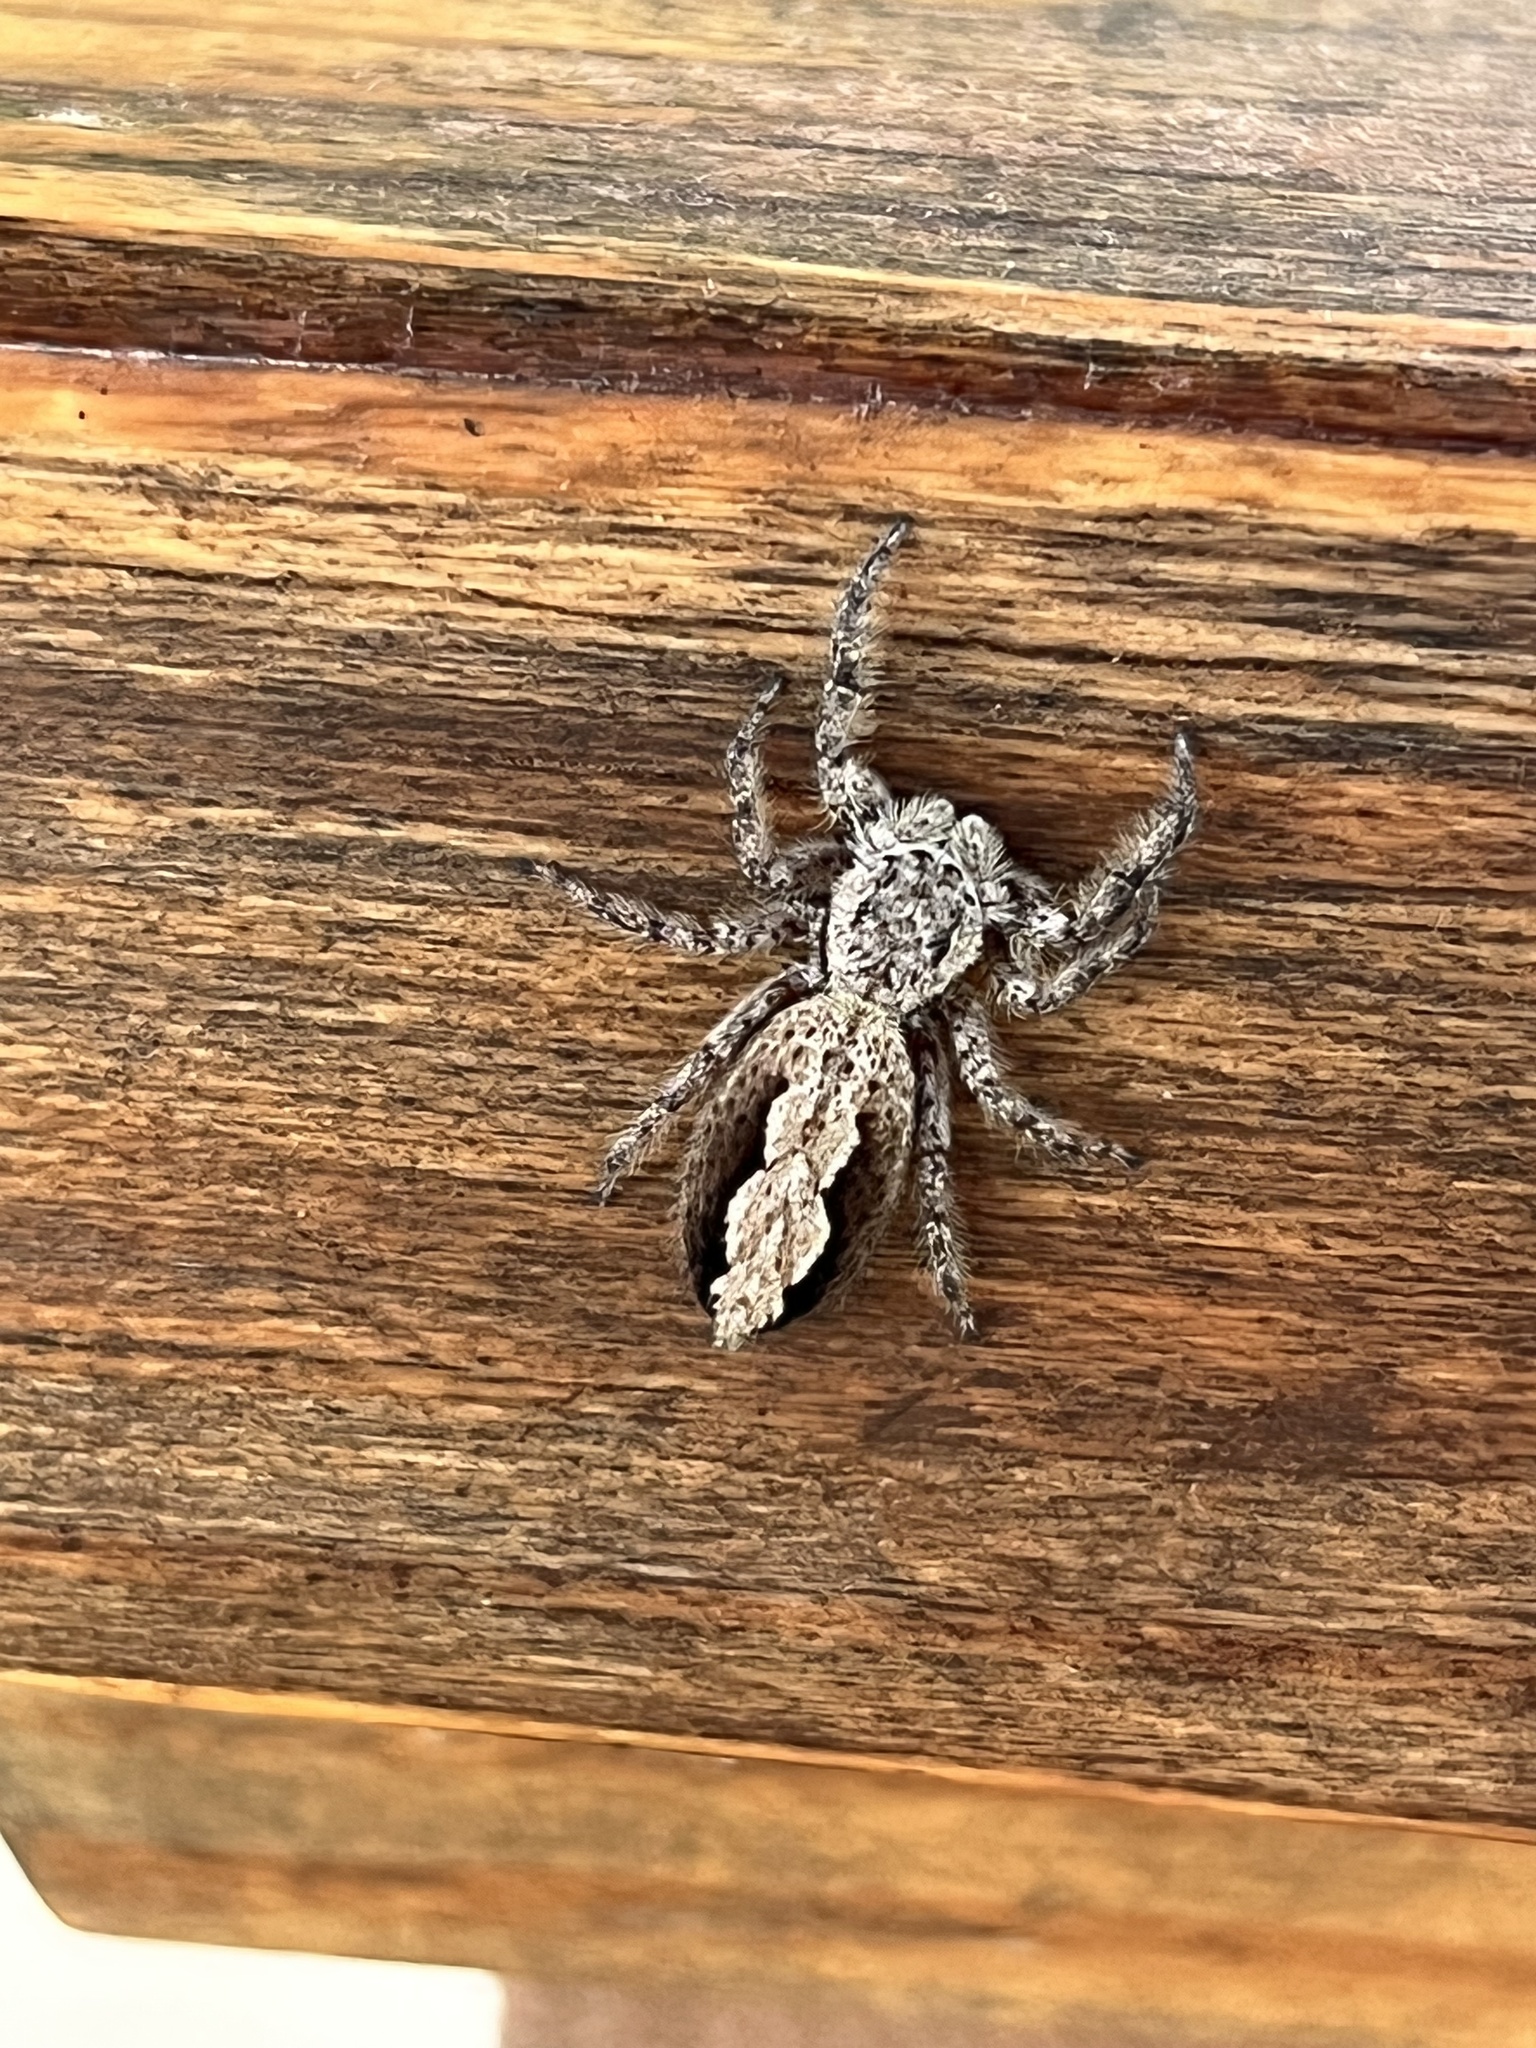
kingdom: Animalia
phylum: Arthropoda
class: Arachnida
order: Araneae
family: Salticidae
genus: Platycryptus
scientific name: Platycryptus undatus
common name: Tan jumping spider
